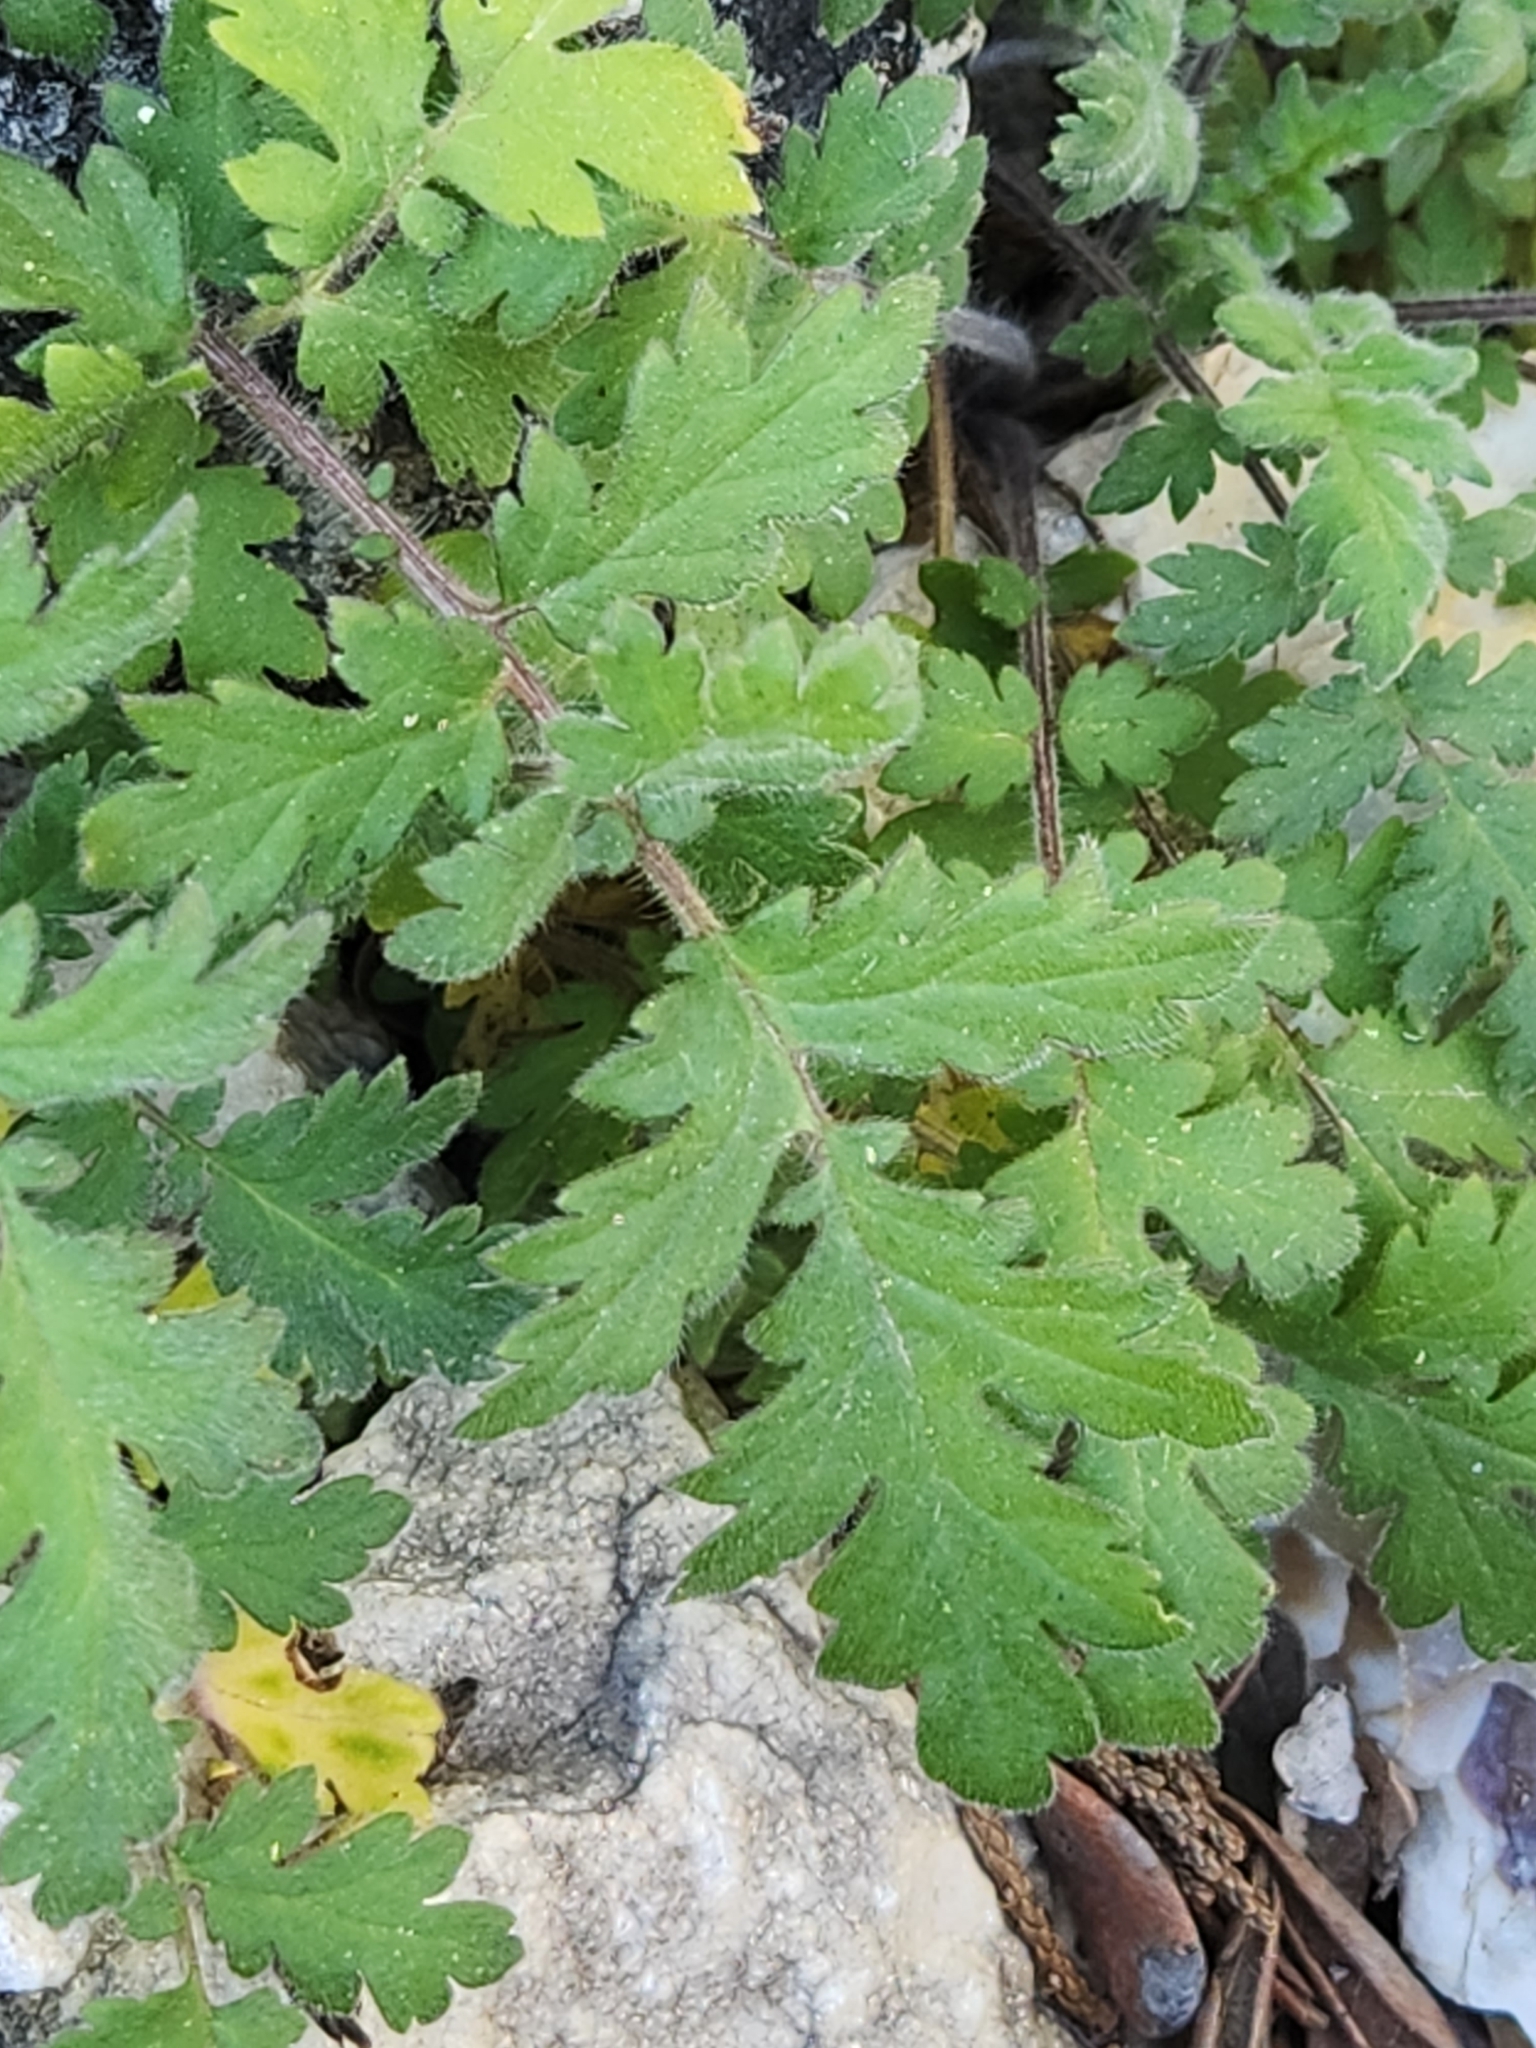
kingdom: Plantae
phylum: Tracheophyta
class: Magnoliopsida
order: Boraginales
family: Hydrophyllaceae
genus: Phacelia
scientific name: Phacelia congesta
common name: Blue curls
